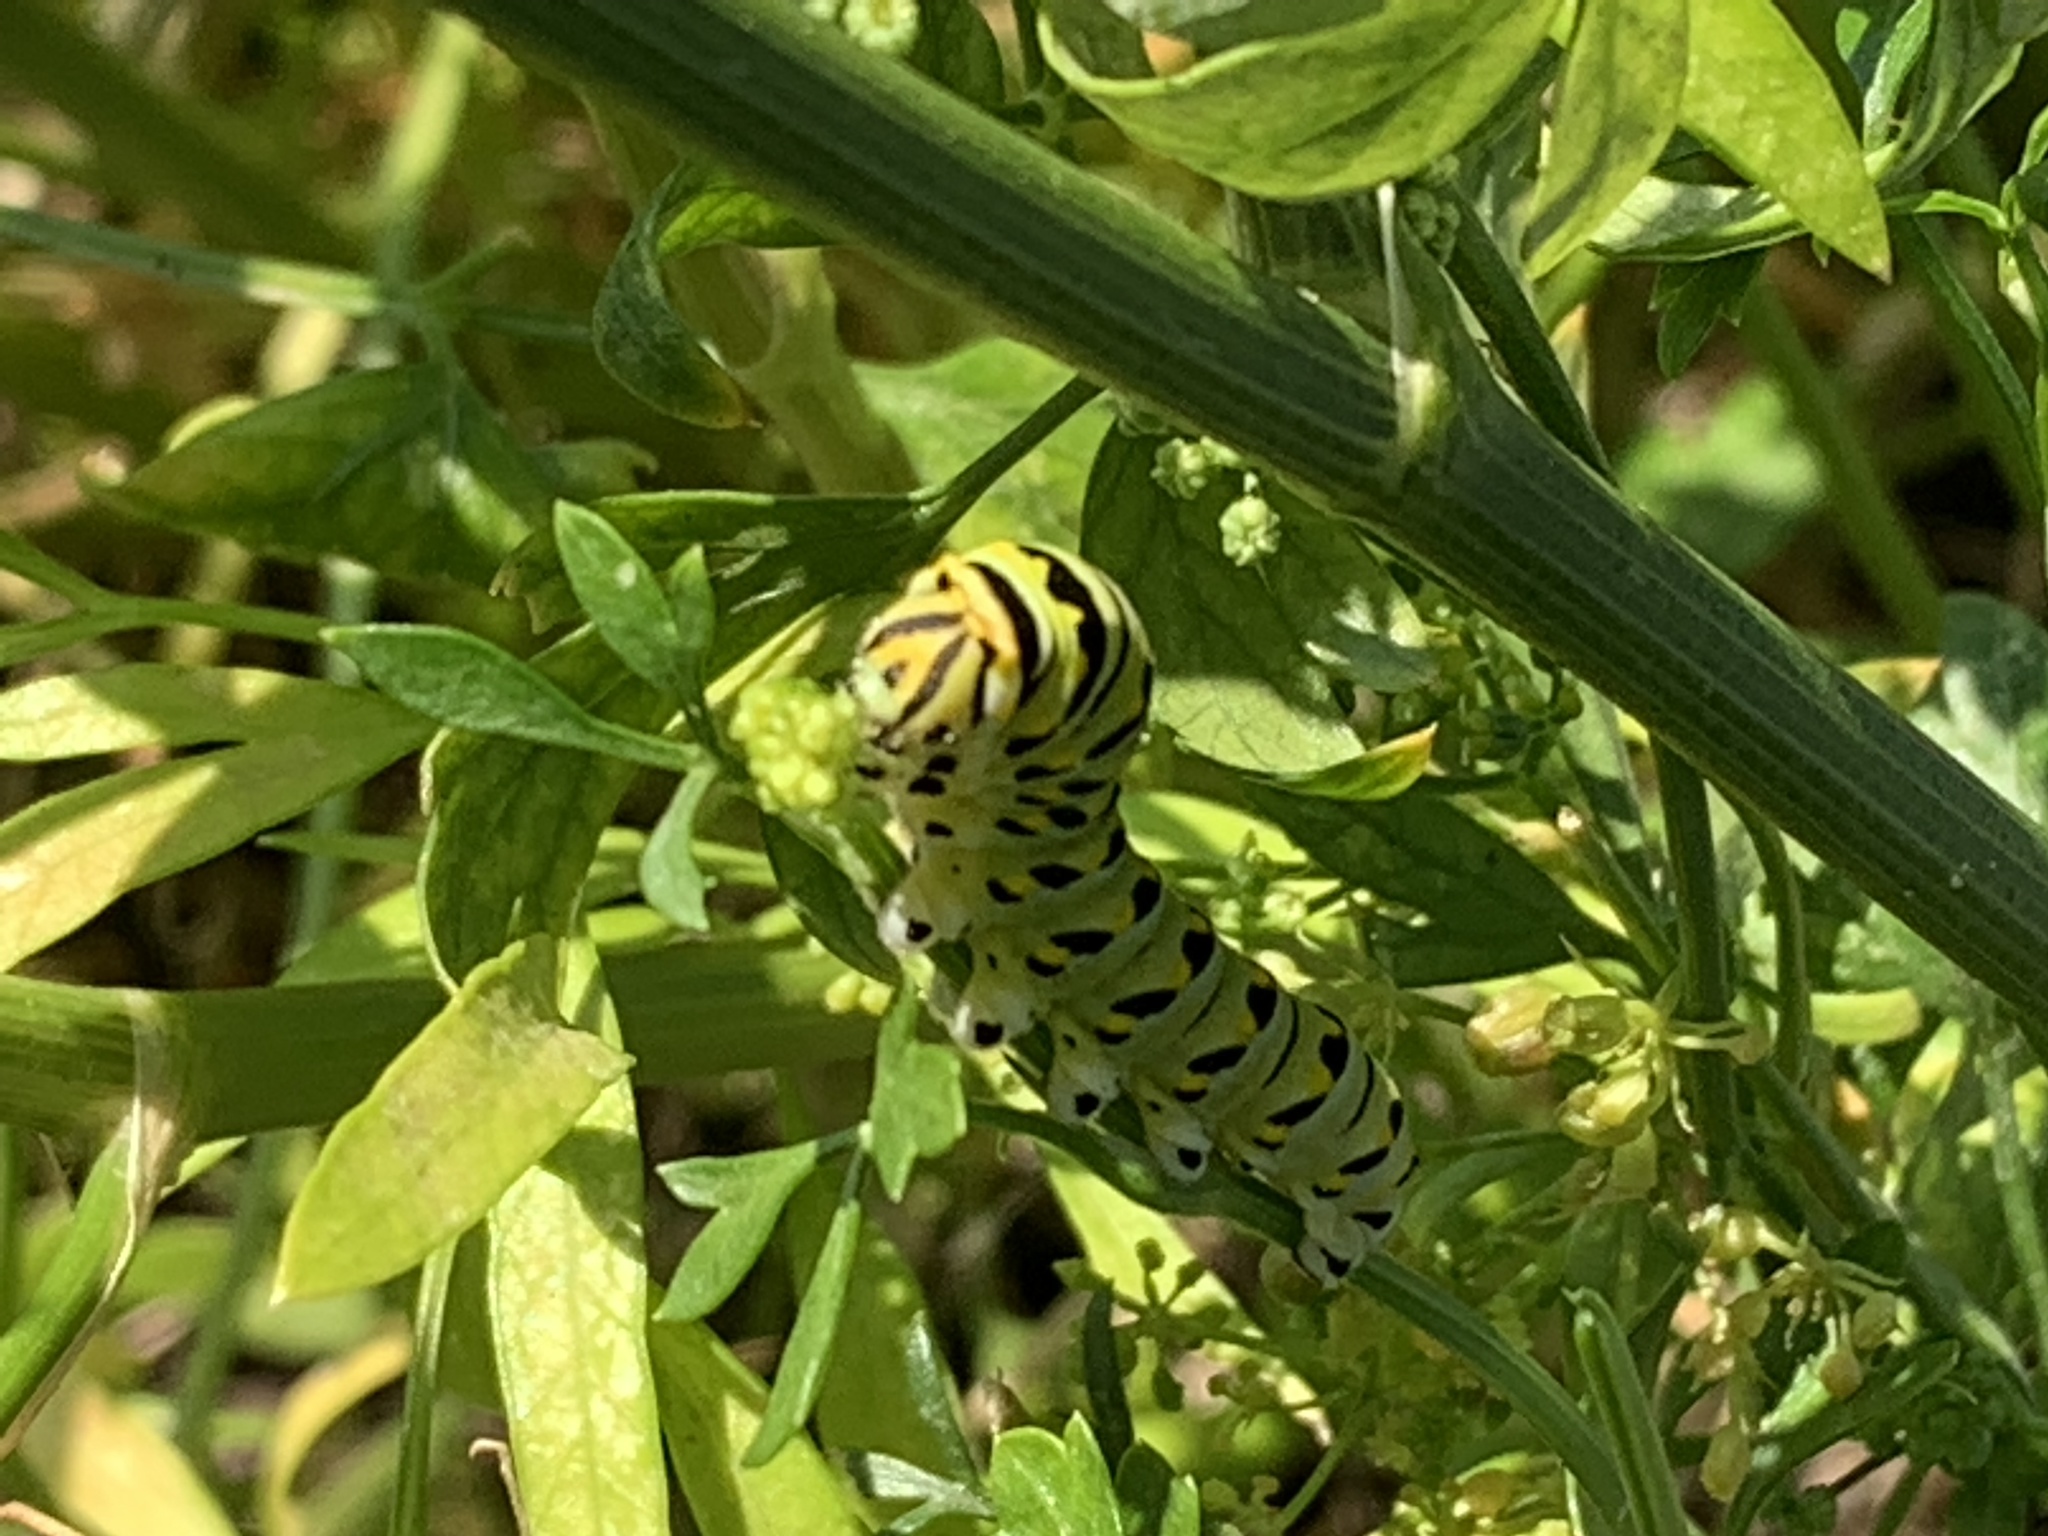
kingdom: Animalia
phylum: Arthropoda
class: Insecta
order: Lepidoptera
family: Papilionidae
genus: Papilio
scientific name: Papilio polyxenes
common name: Black swallowtail
